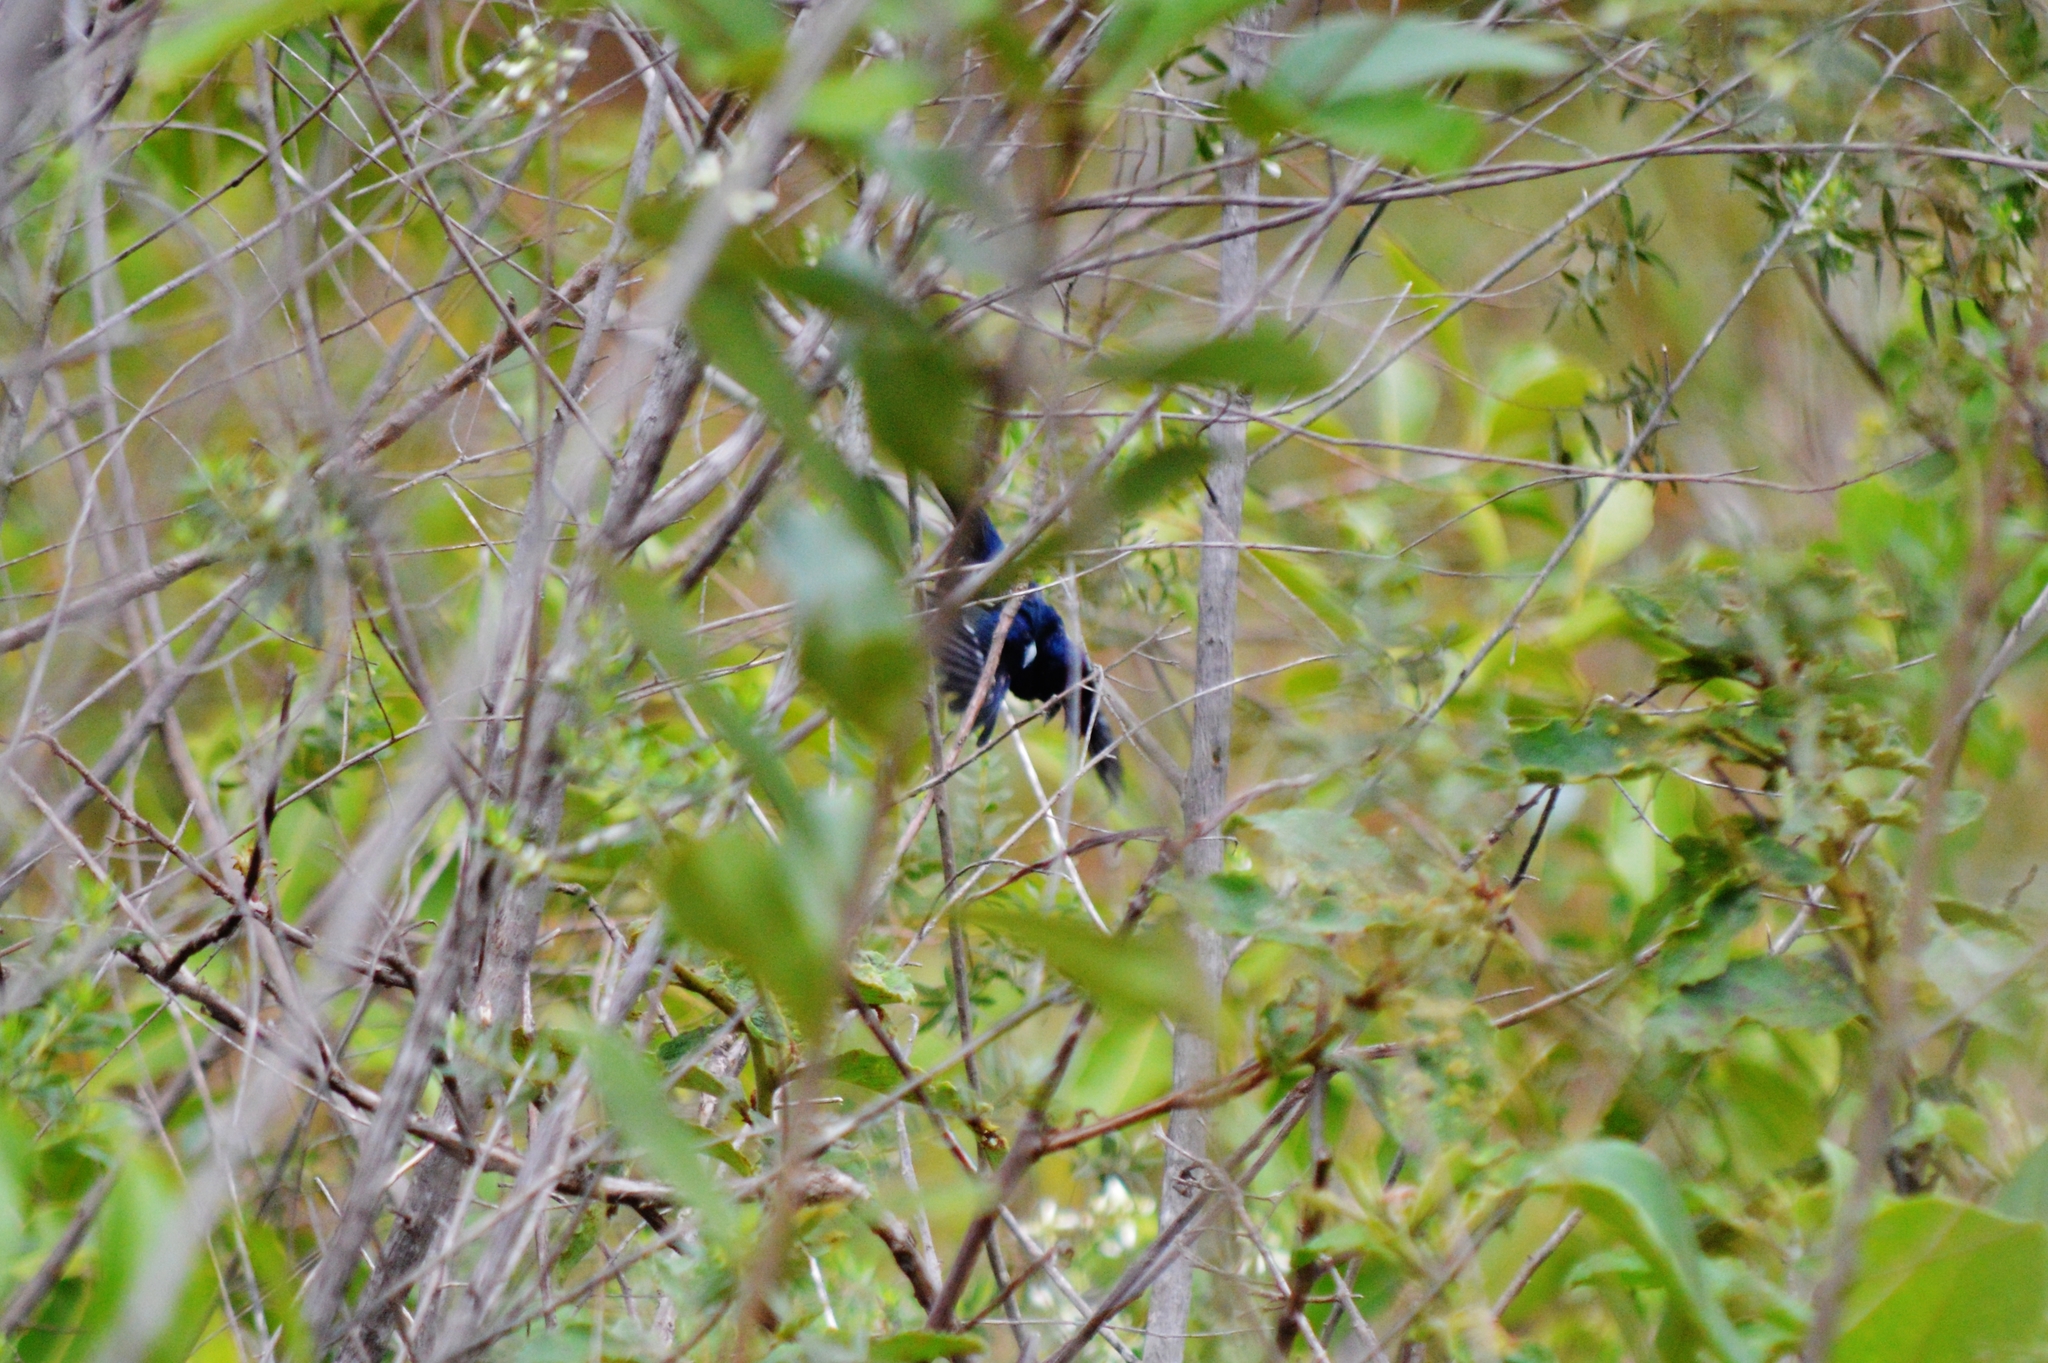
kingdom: Animalia
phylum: Chordata
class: Aves
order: Passeriformes
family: Thraupidae
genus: Volatinia
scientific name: Volatinia jacarina
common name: Blue-black grassquit
